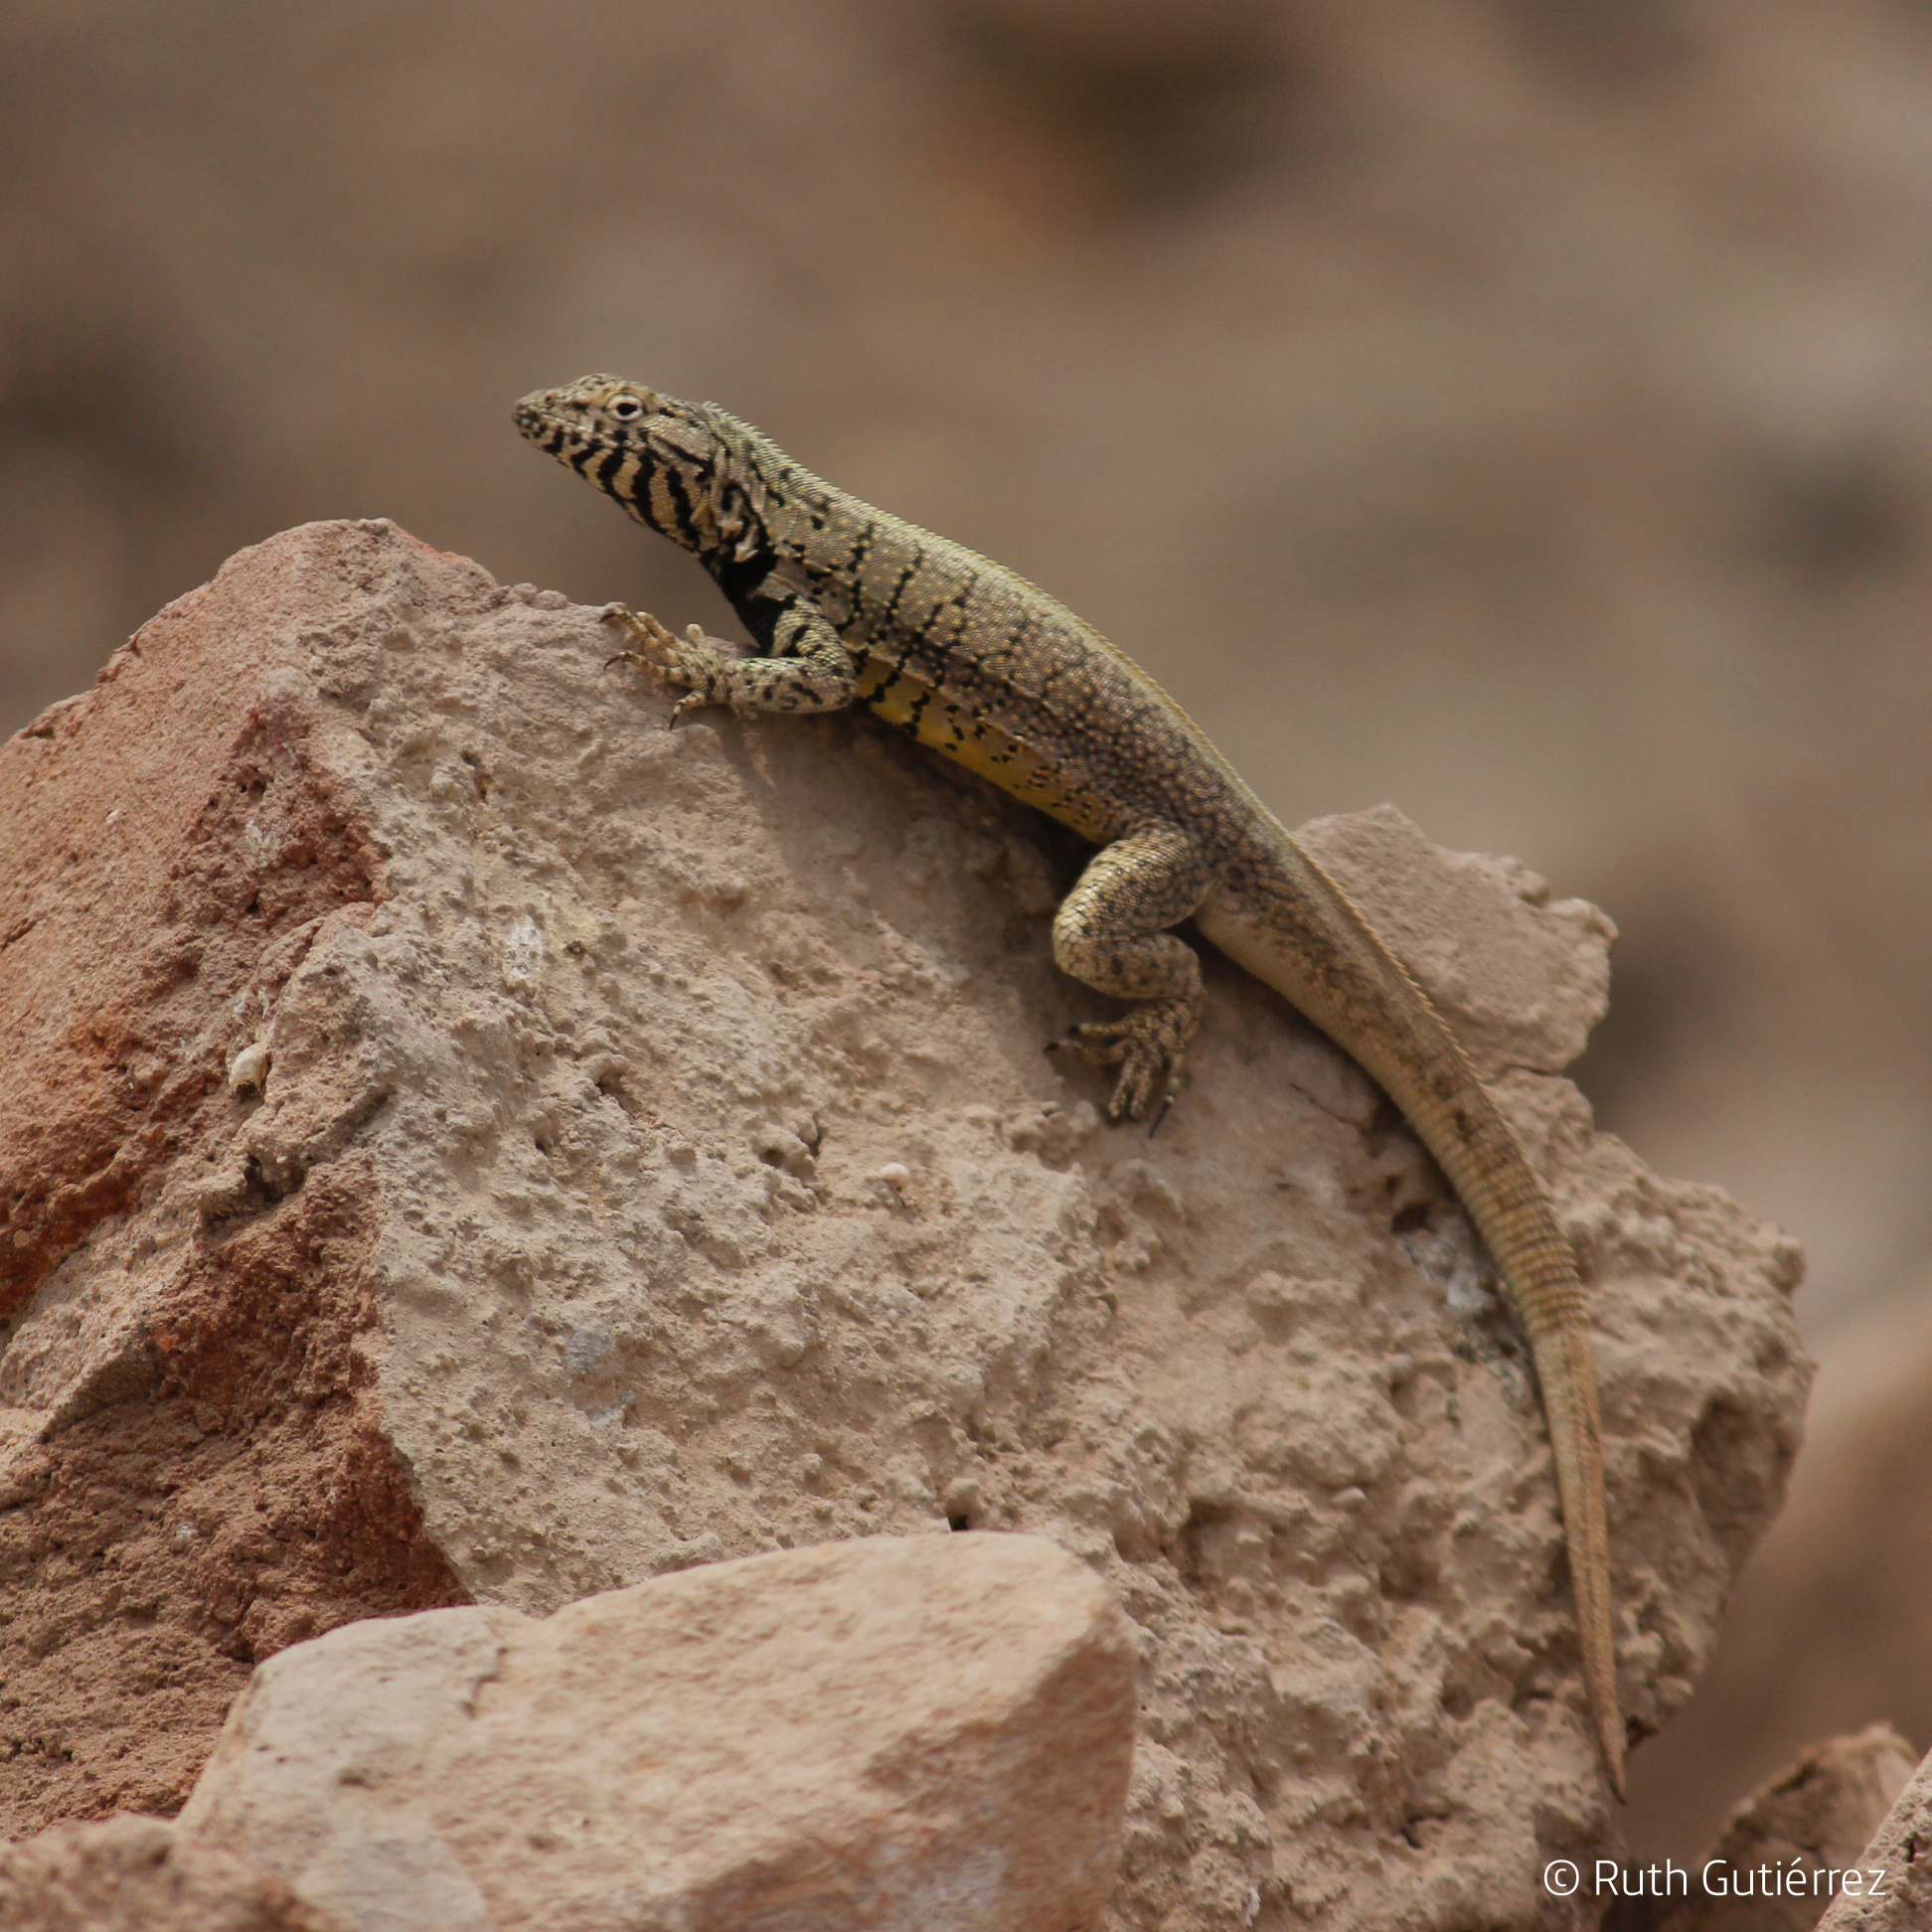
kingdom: Animalia
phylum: Chordata
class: Squamata
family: Tropiduridae
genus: Microlophus
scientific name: Microlophus peruvianus
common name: Peru pacific iguana
